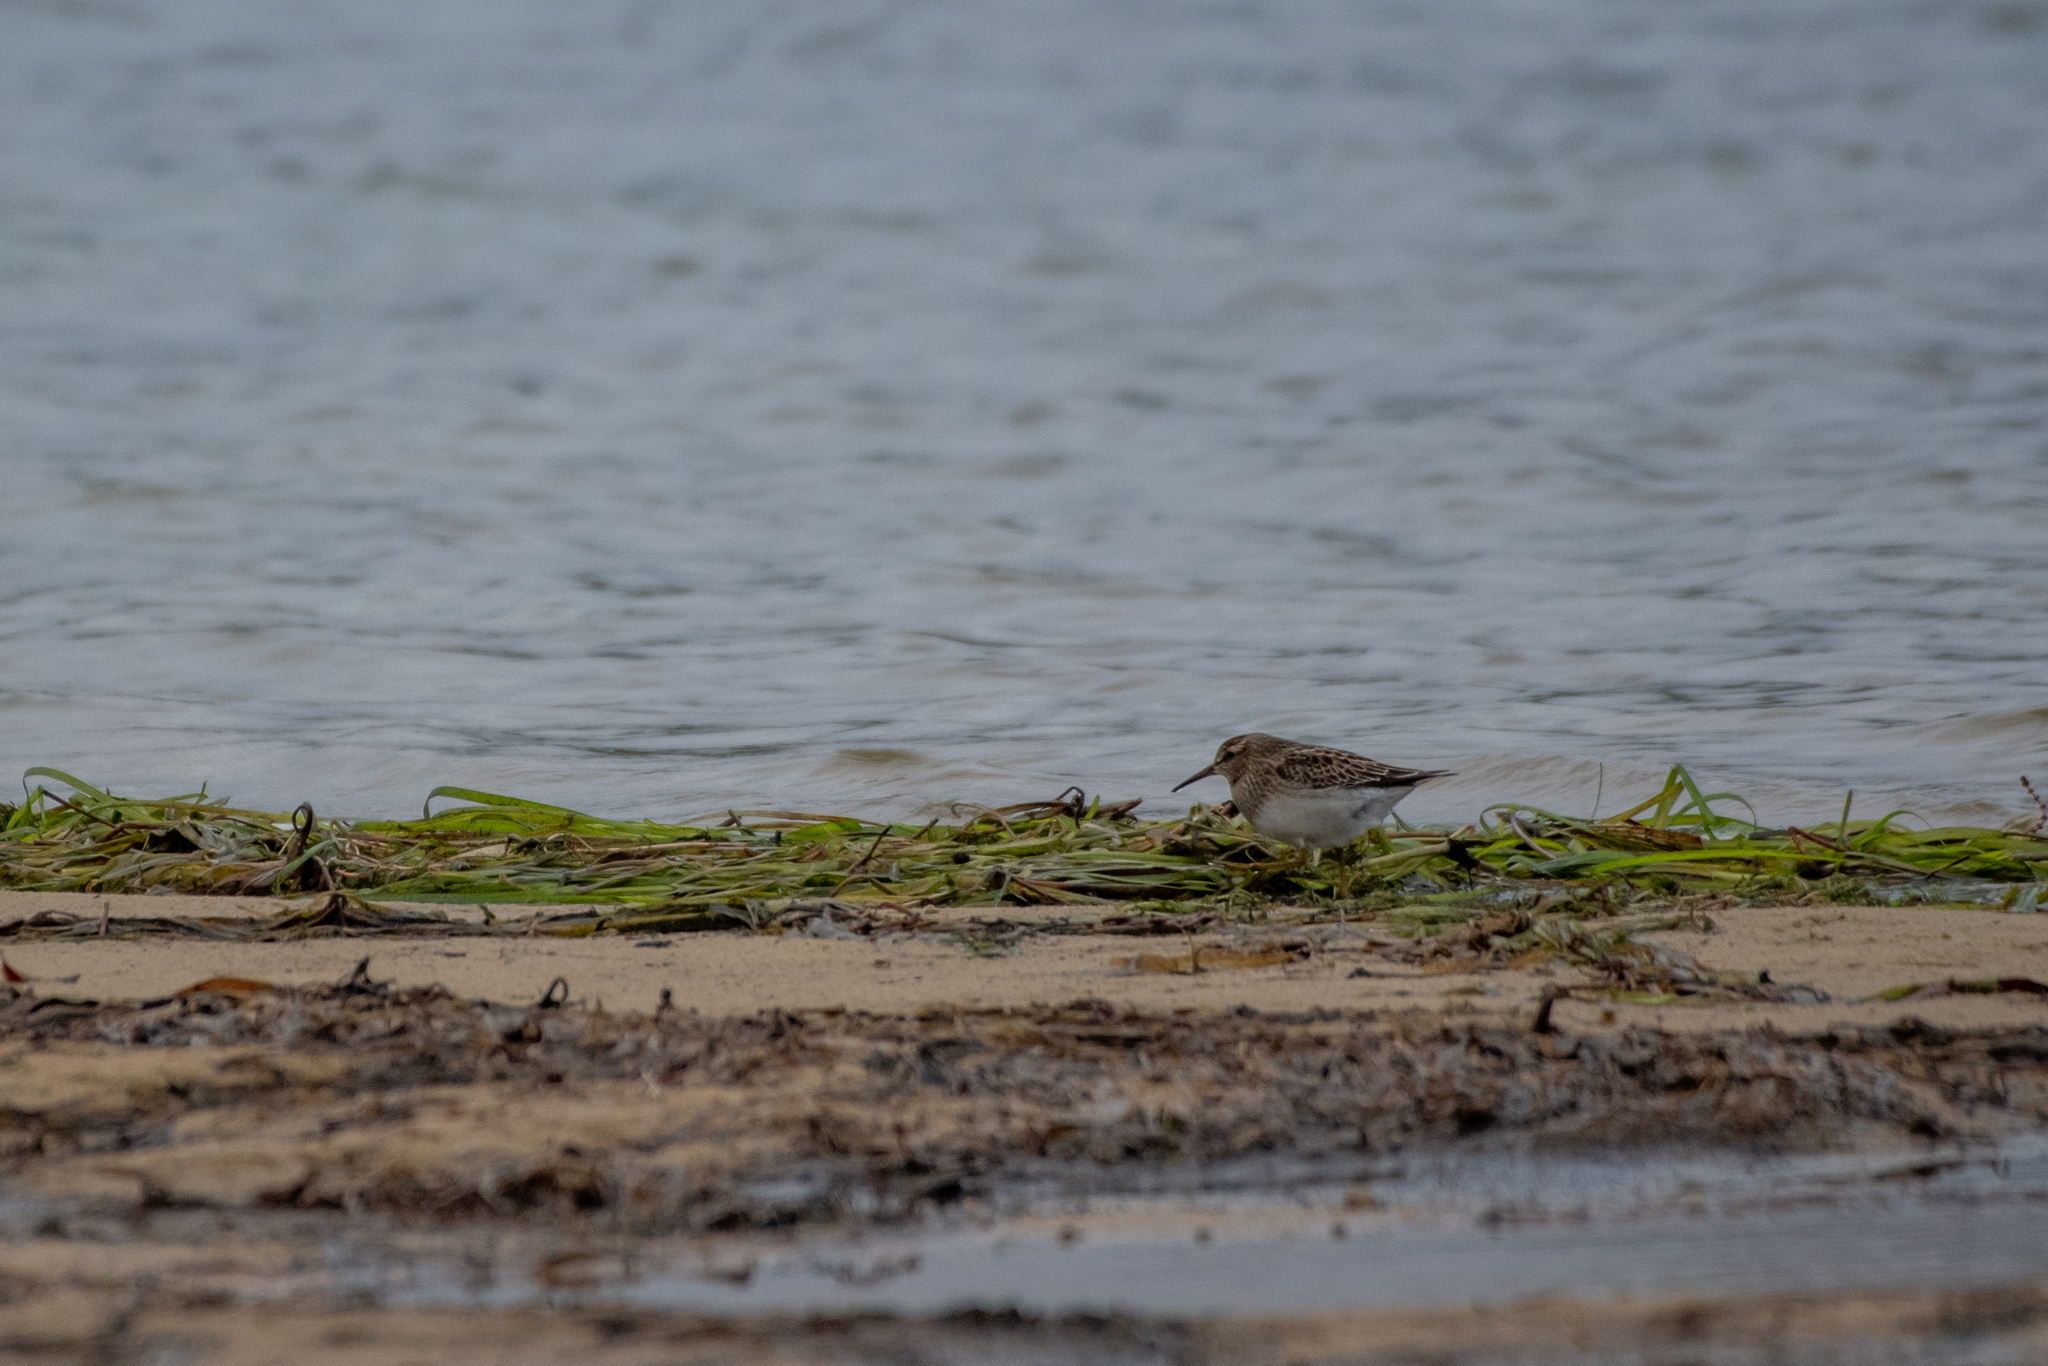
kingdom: Animalia
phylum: Chordata
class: Aves
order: Charadriiformes
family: Scolopacidae
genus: Calidris
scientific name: Calidris melanotos
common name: Pectoral sandpiper
